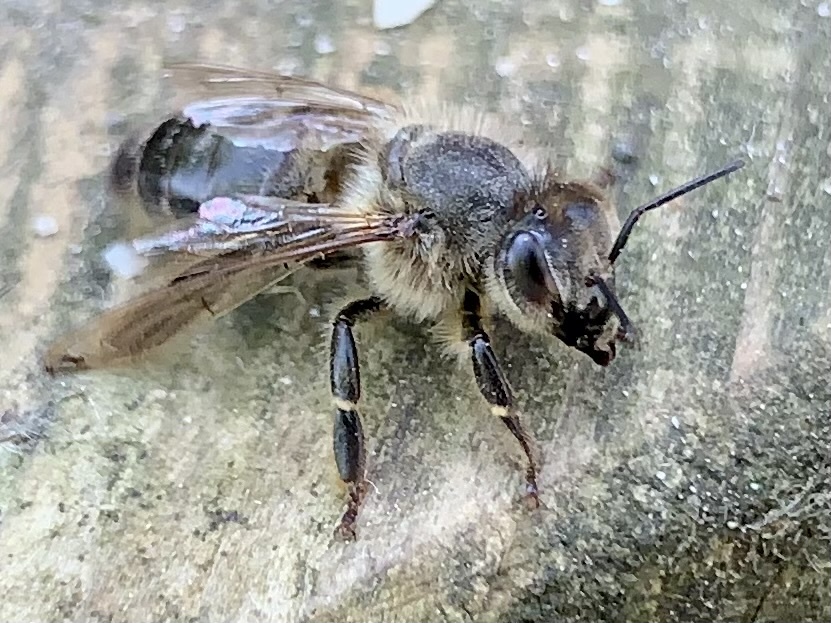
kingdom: Animalia
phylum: Arthropoda
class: Insecta
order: Hymenoptera
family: Apidae
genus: Apis
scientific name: Apis mellifera
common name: Honey bee
